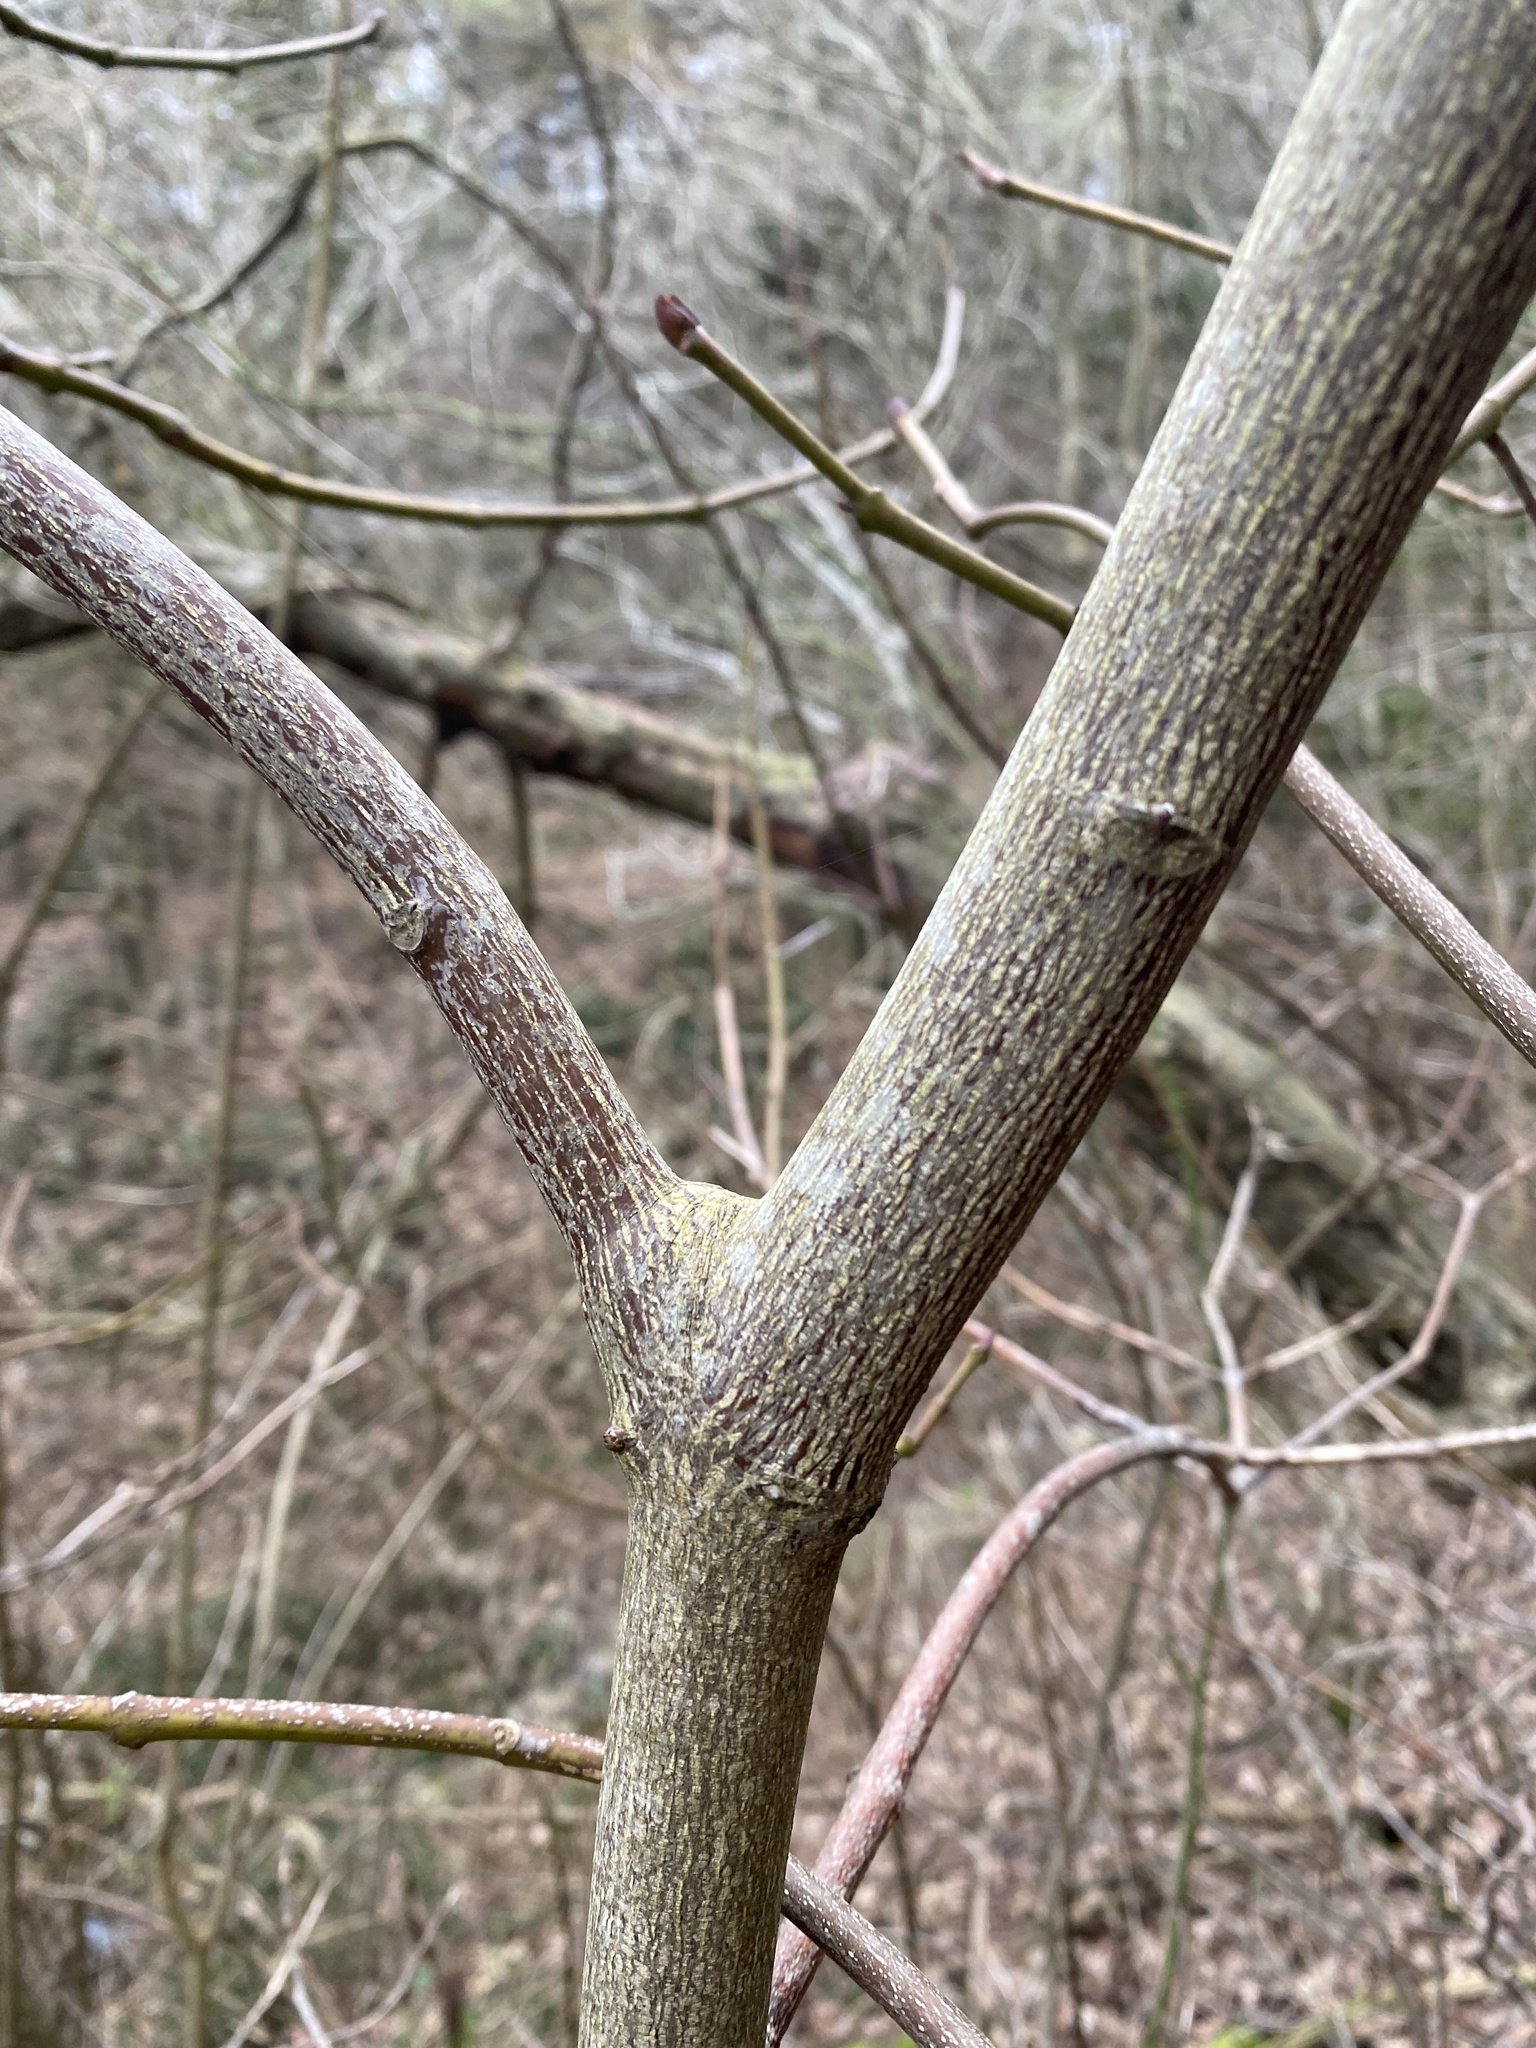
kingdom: Plantae
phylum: Tracheophyta
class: Magnoliopsida
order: Crossosomatales
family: Staphyleaceae
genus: Staphylea
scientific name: Staphylea pinnata
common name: Bladdernut
